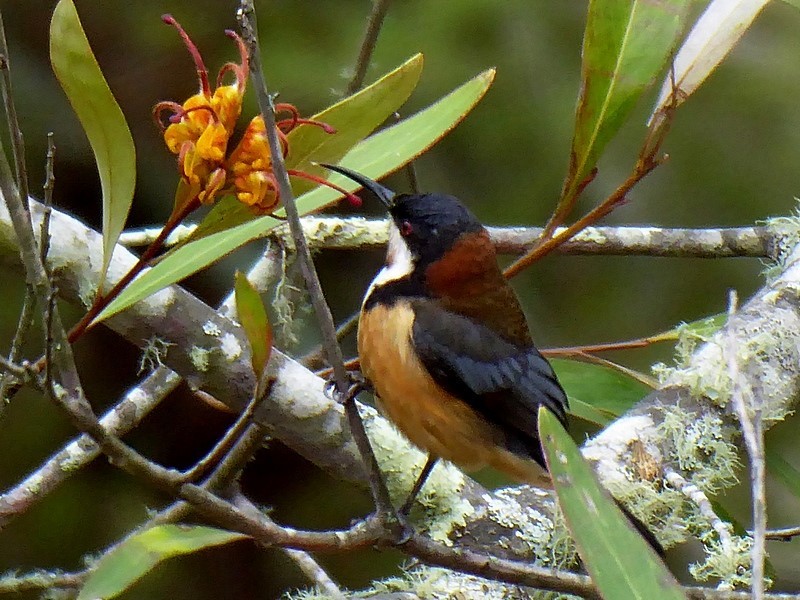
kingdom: Animalia
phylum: Chordata
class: Aves
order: Passeriformes
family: Meliphagidae
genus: Acanthorhynchus
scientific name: Acanthorhynchus tenuirostris
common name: Eastern spinebill
